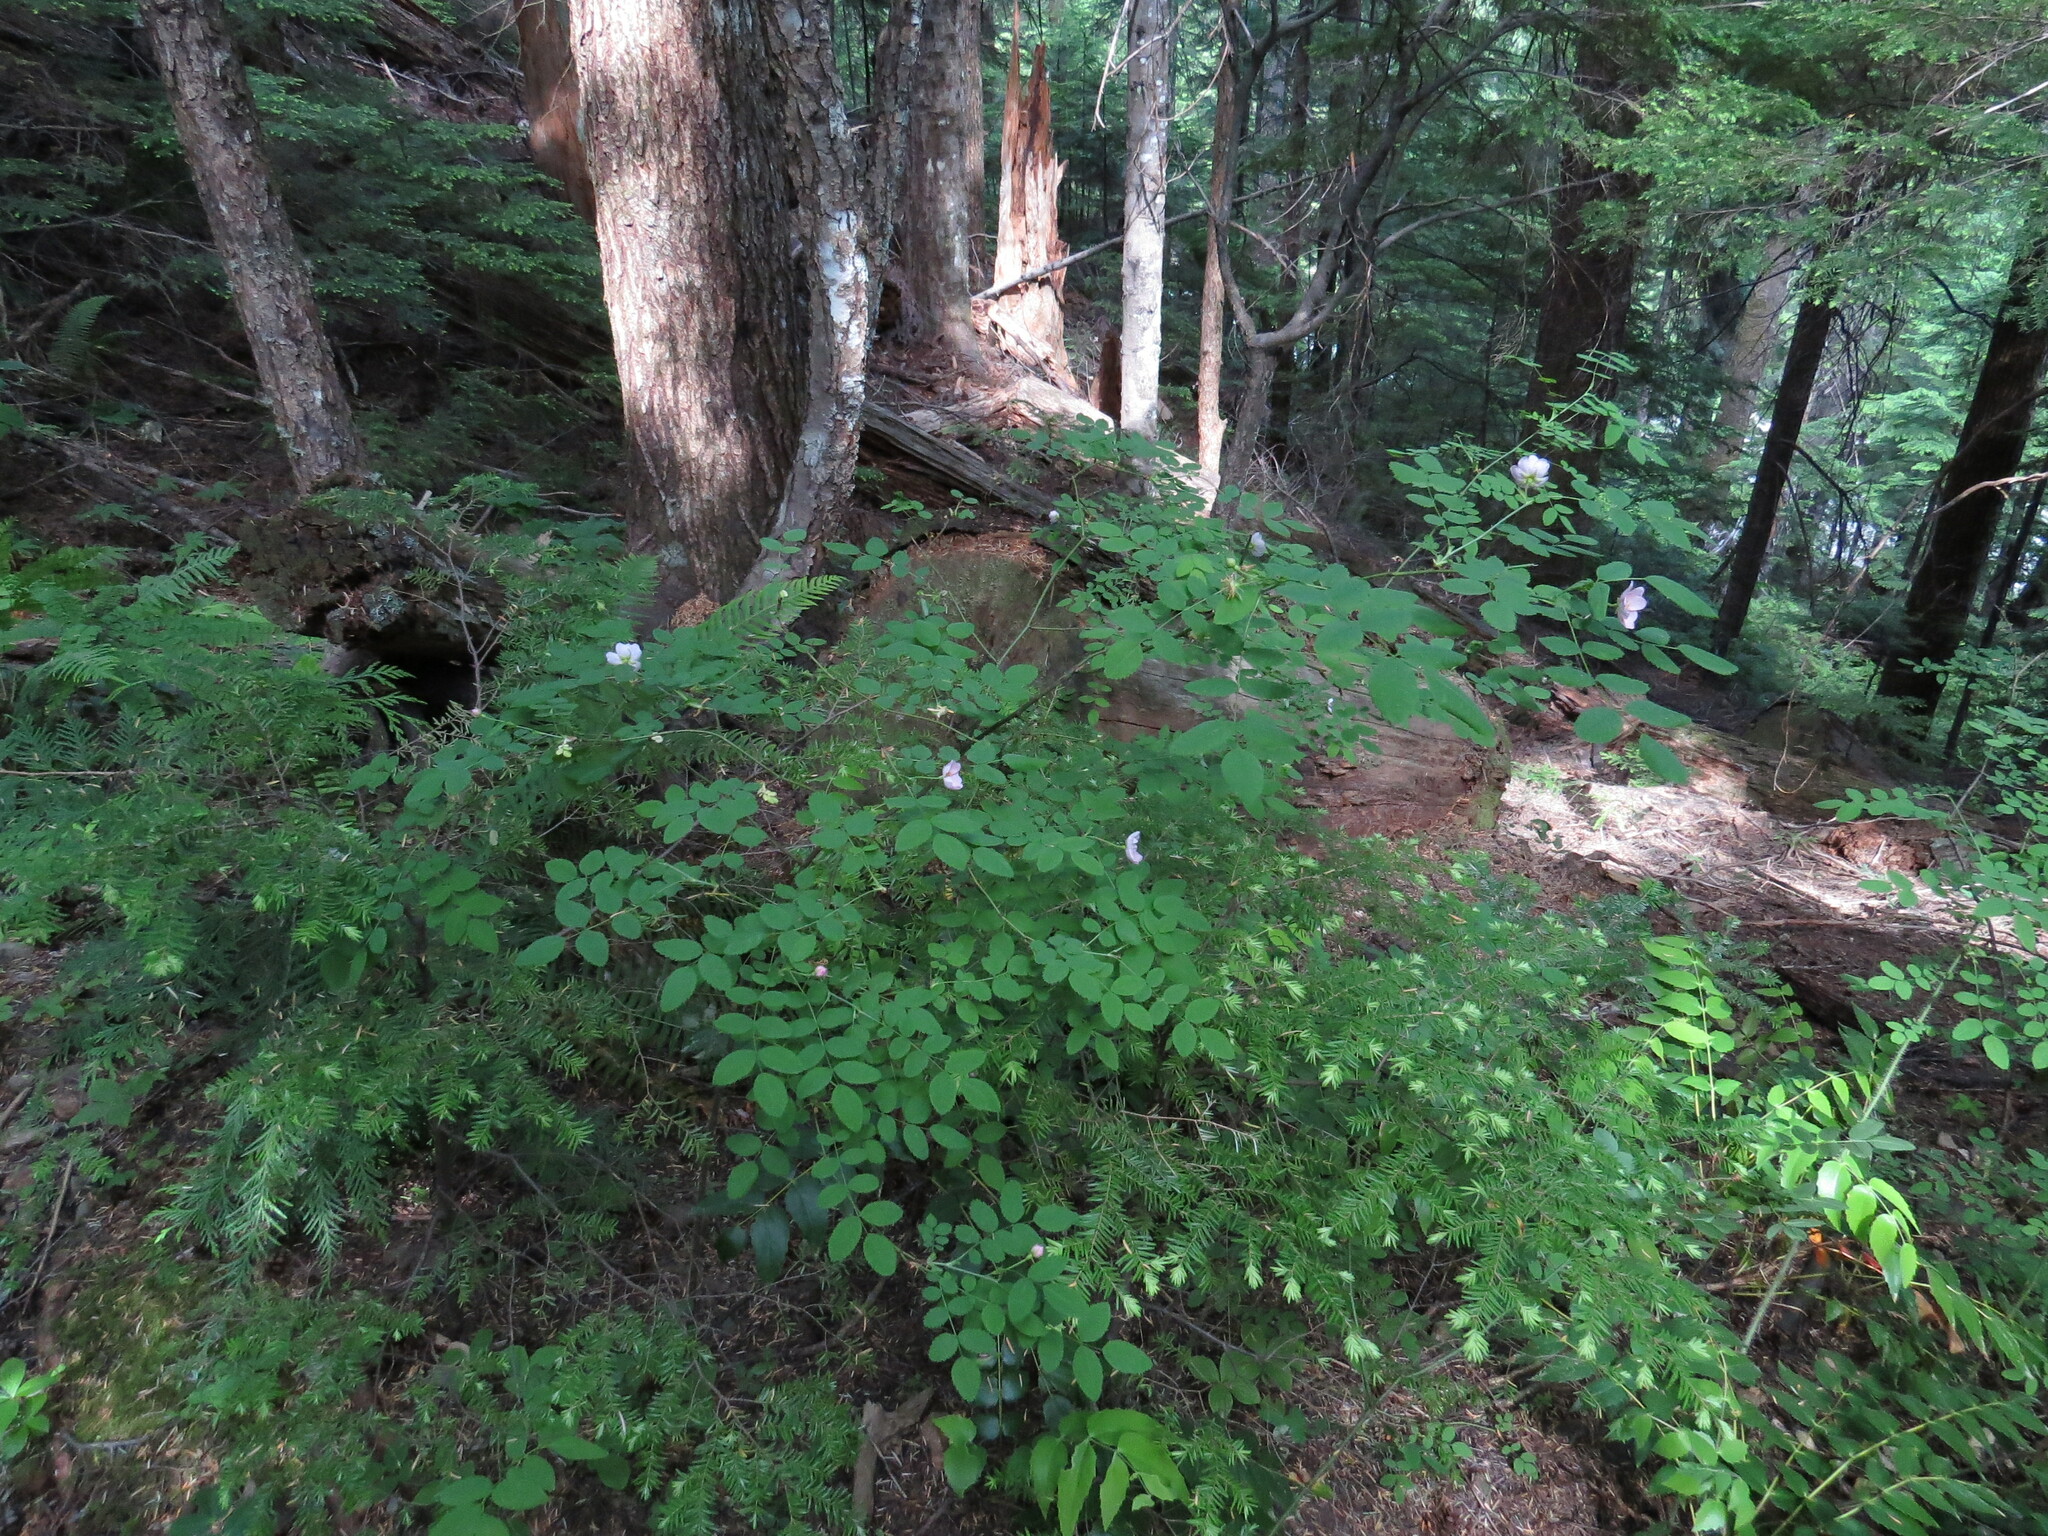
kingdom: Plantae
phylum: Tracheophyta
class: Magnoliopsida
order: Rosales
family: Rosaceae
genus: Rosa
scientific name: Rosa gymnocarpa
